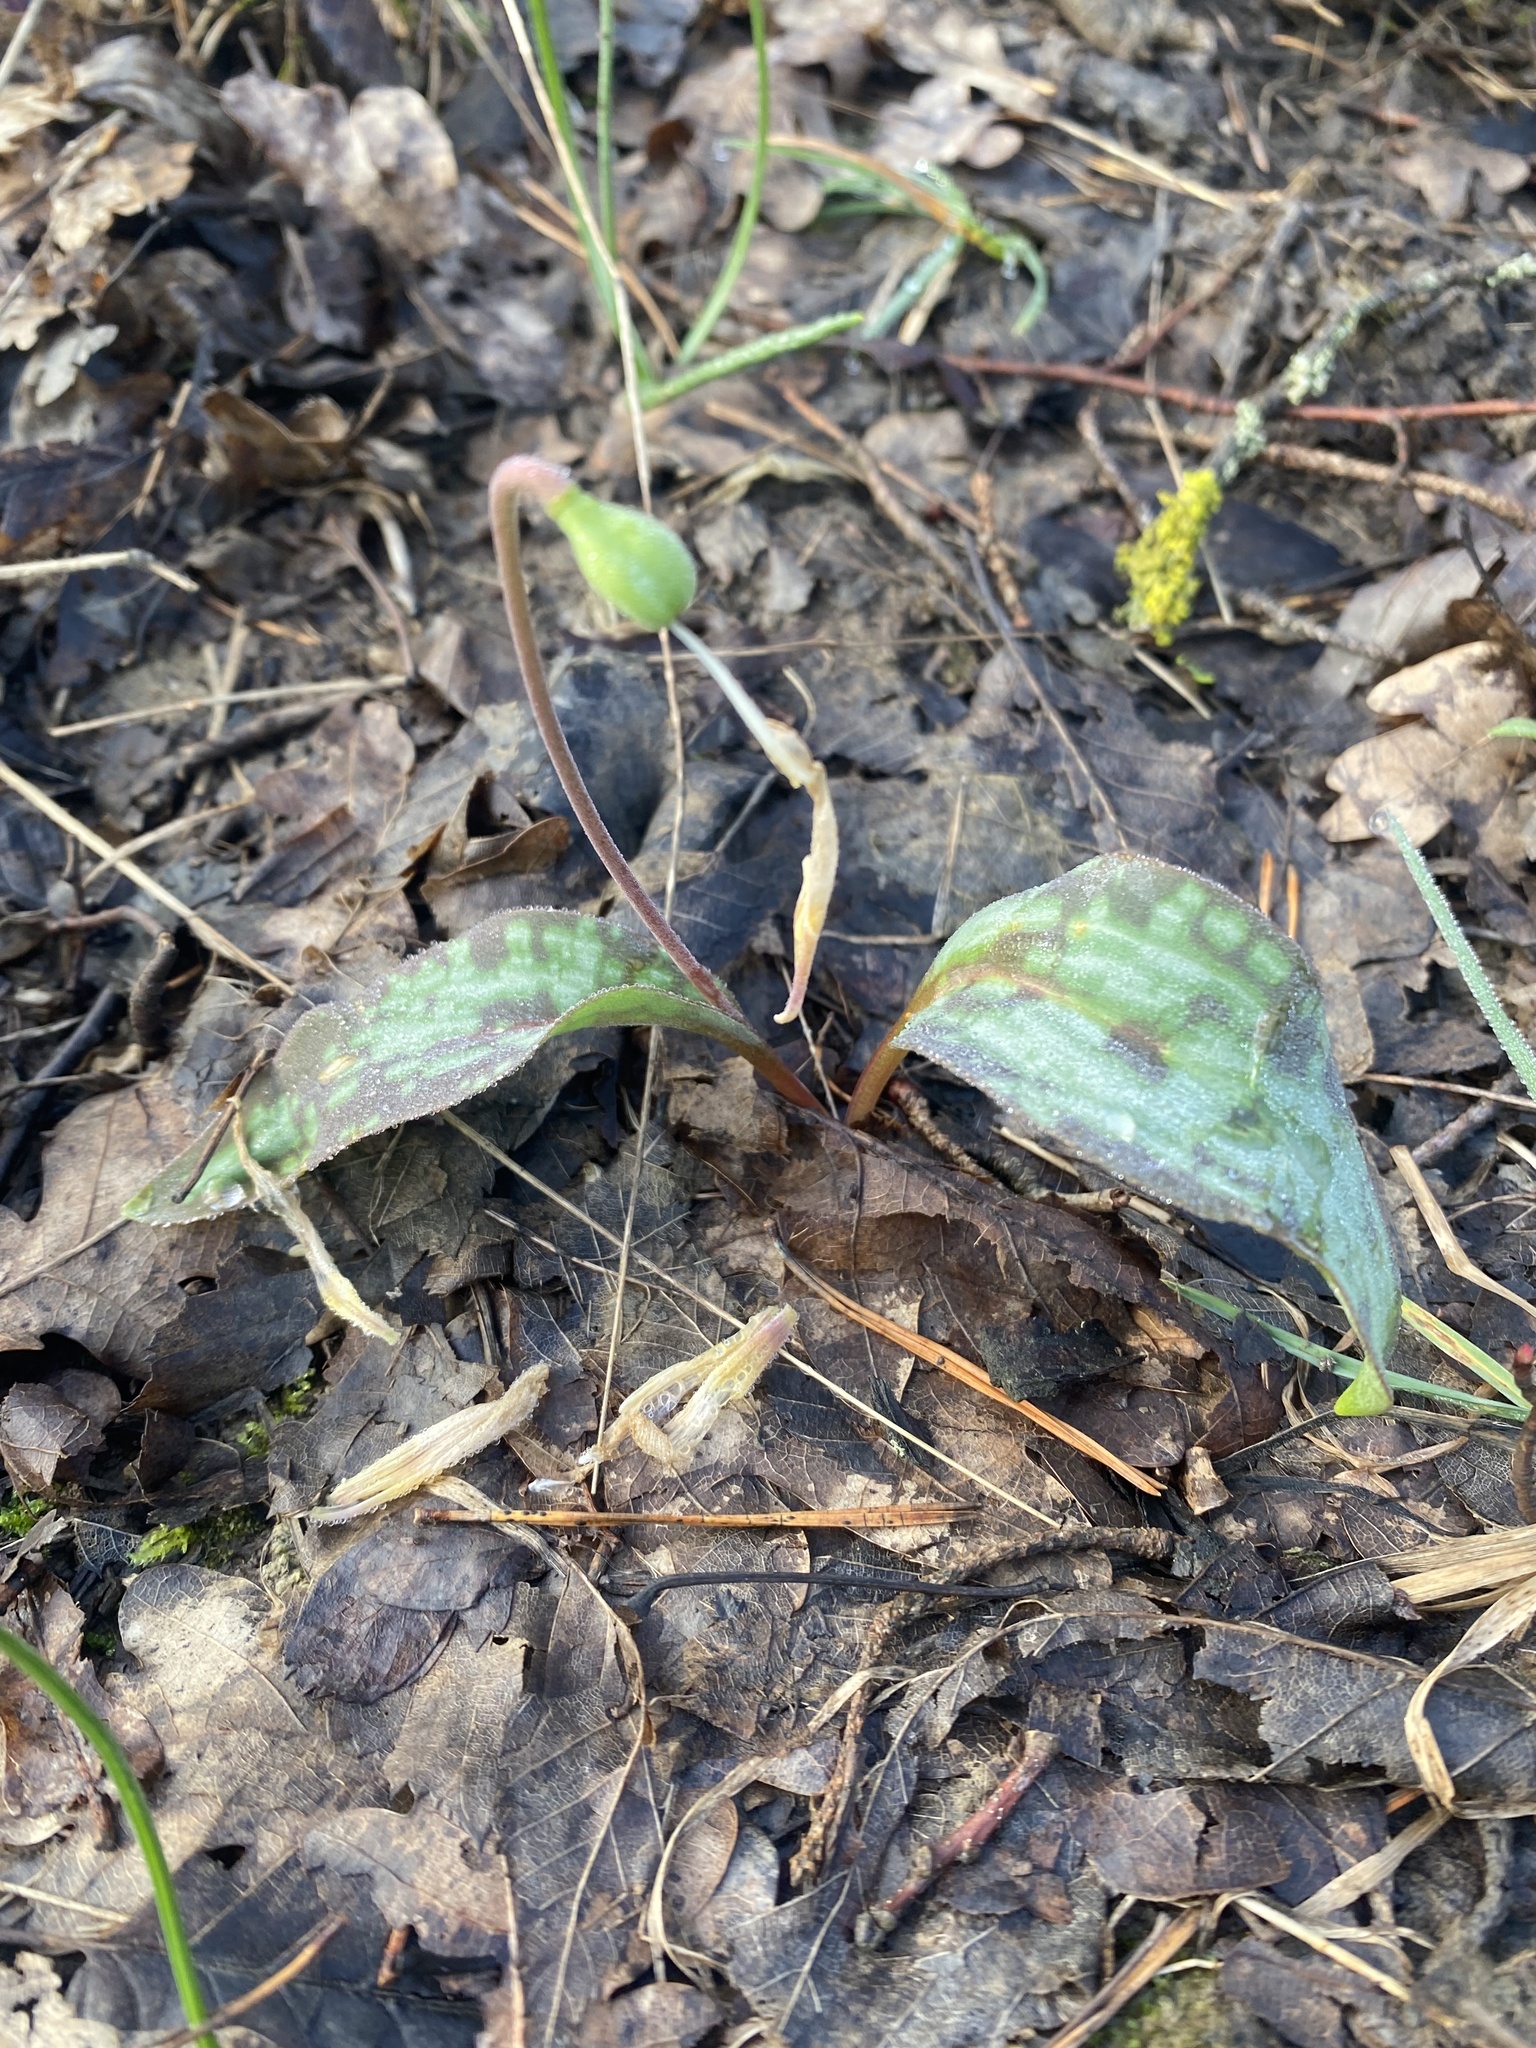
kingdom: Plantae
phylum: Tracheophyta
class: Liliopsida
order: Liliales
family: Liliaceae
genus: Erythronium
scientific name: Erythronium caucasicum
